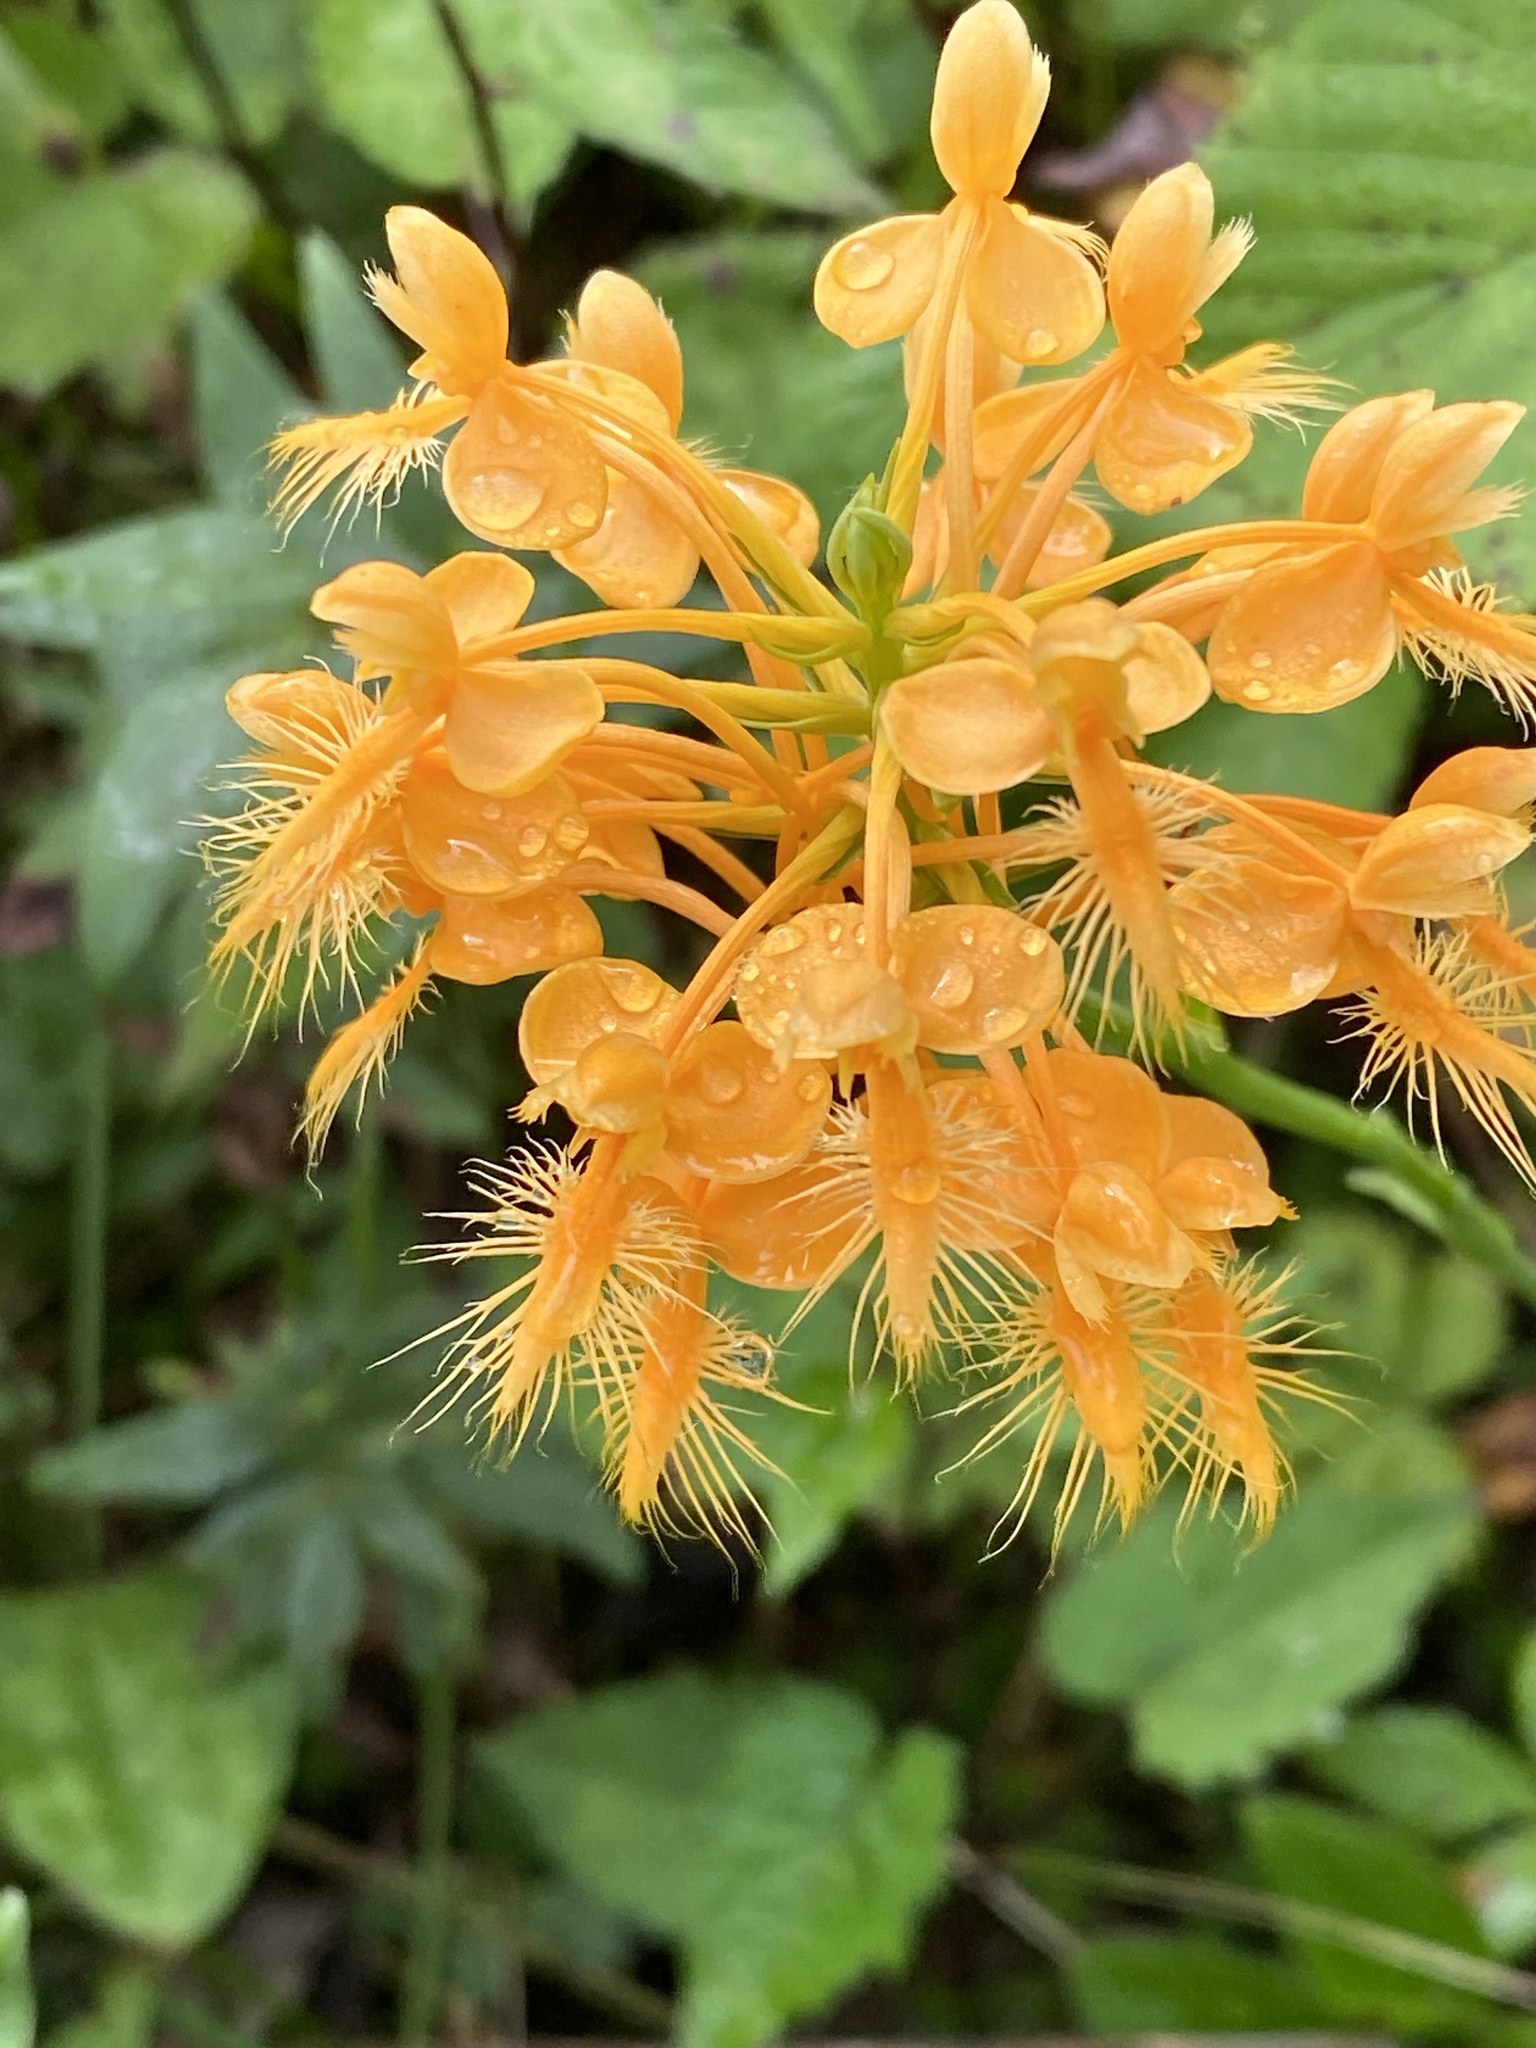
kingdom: Plantae
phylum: Tracheophyta
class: Liliopsida
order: Asparagales
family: Orchidaceae
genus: Platanthera
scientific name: Platanthera ciliaris
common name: Yellow fringed orchid
